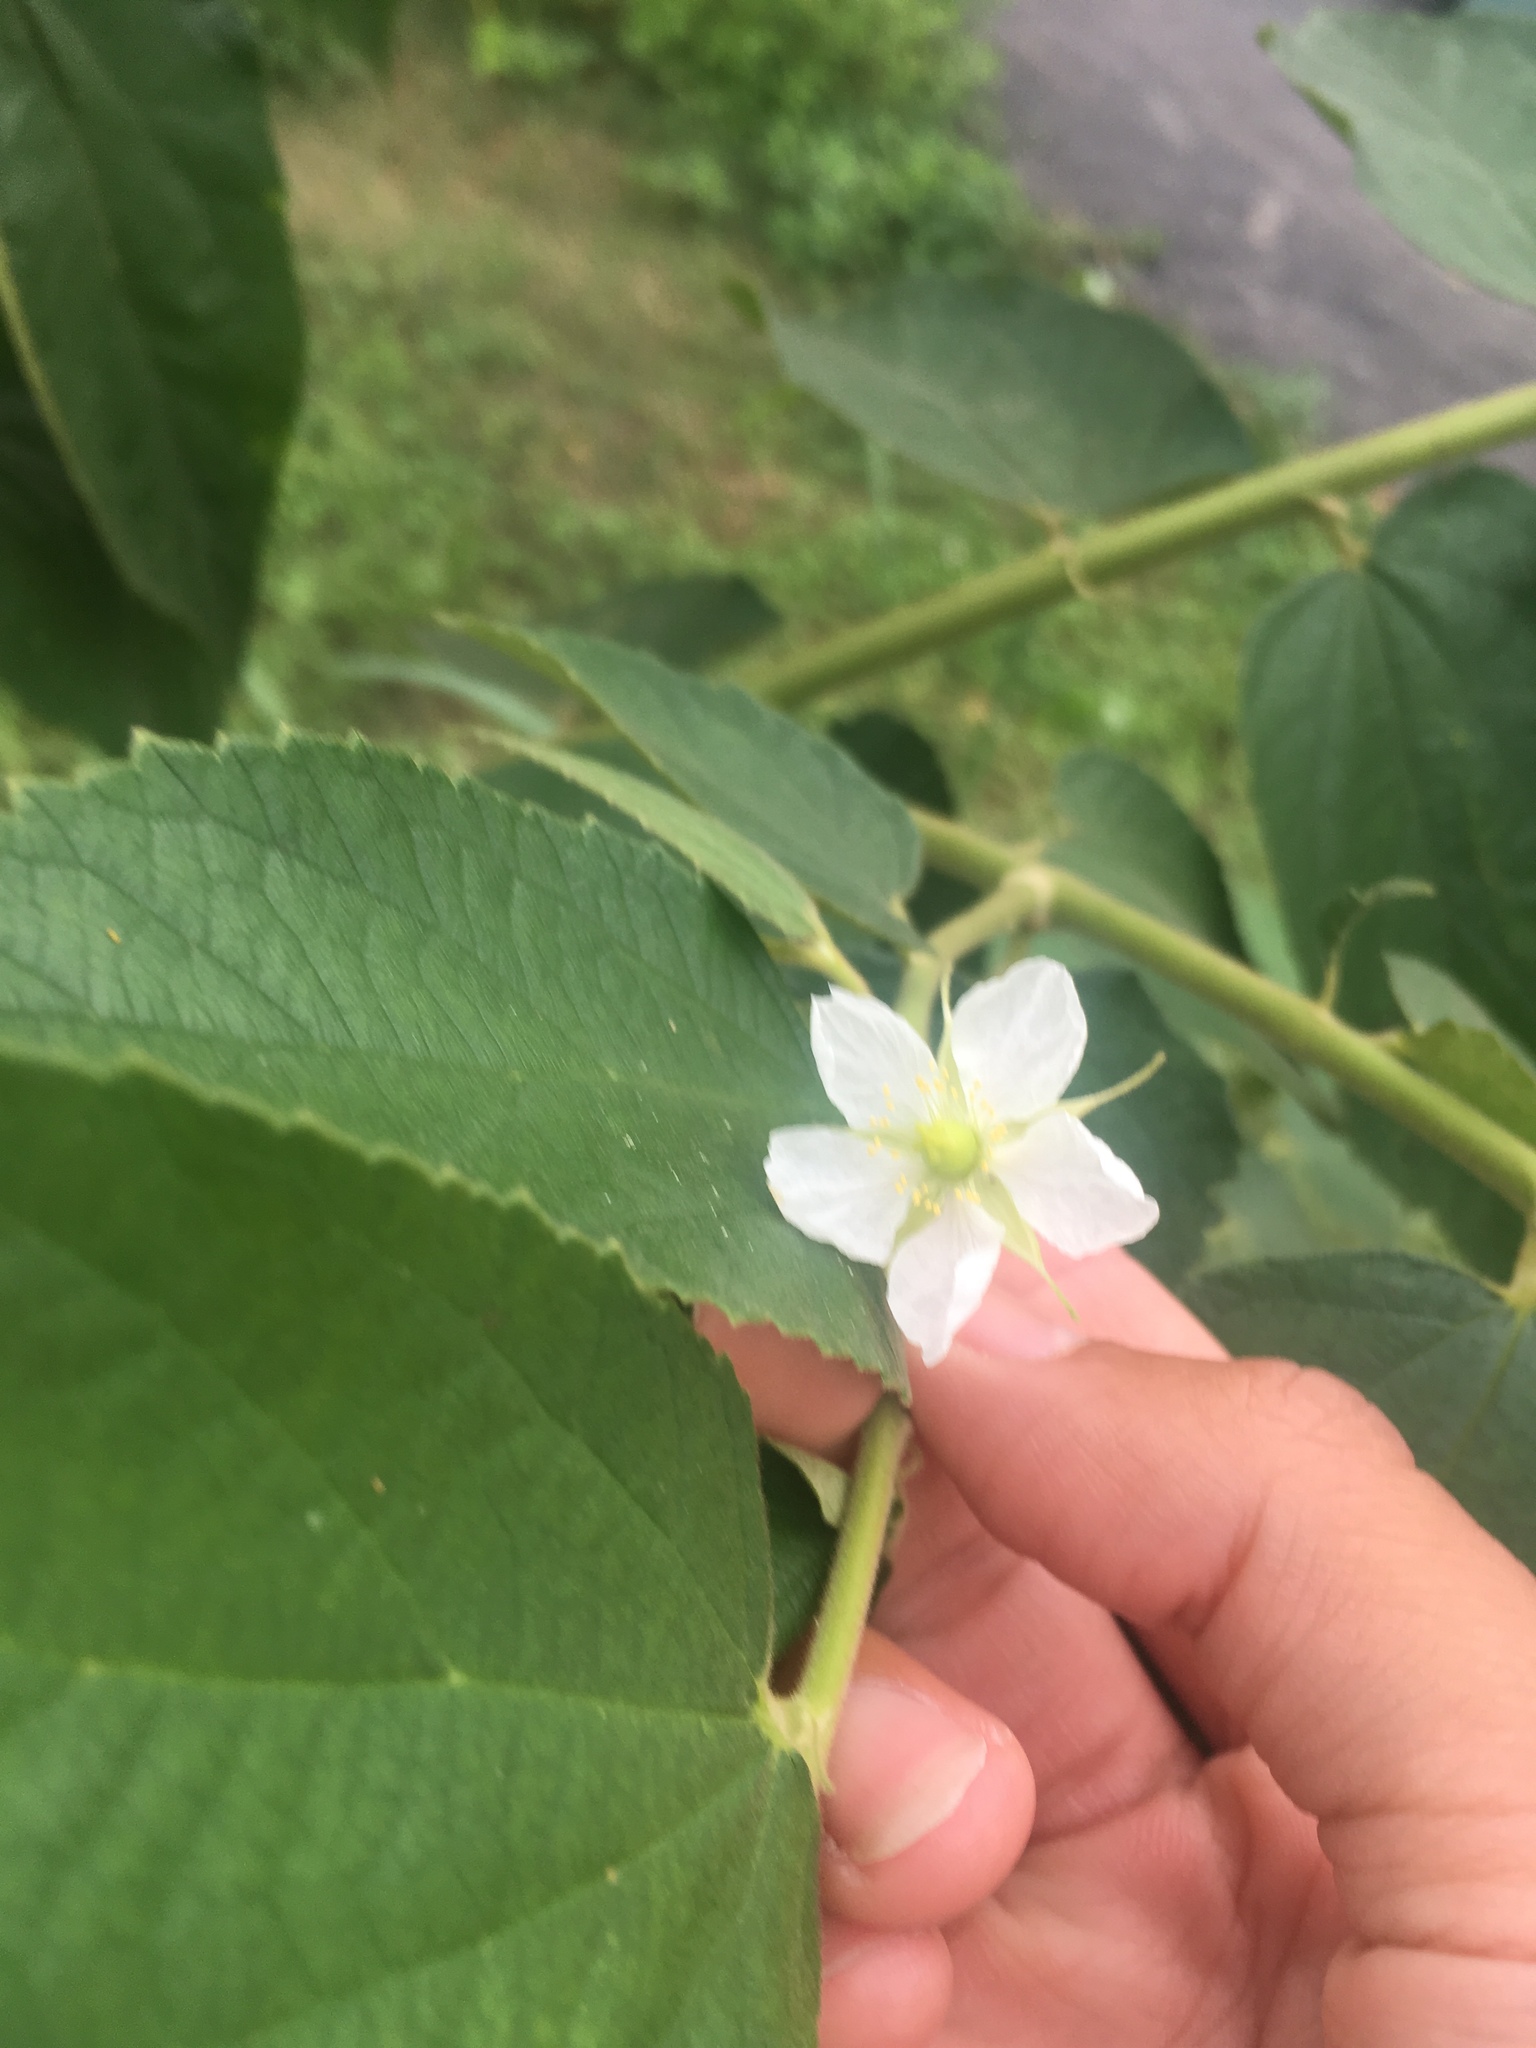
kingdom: Plantae
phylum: Tracheophyta
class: Magnoliopsida
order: Malvales
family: Muntingiaceae
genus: Muntingia
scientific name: Muntingia calabura
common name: Strawberrytree
